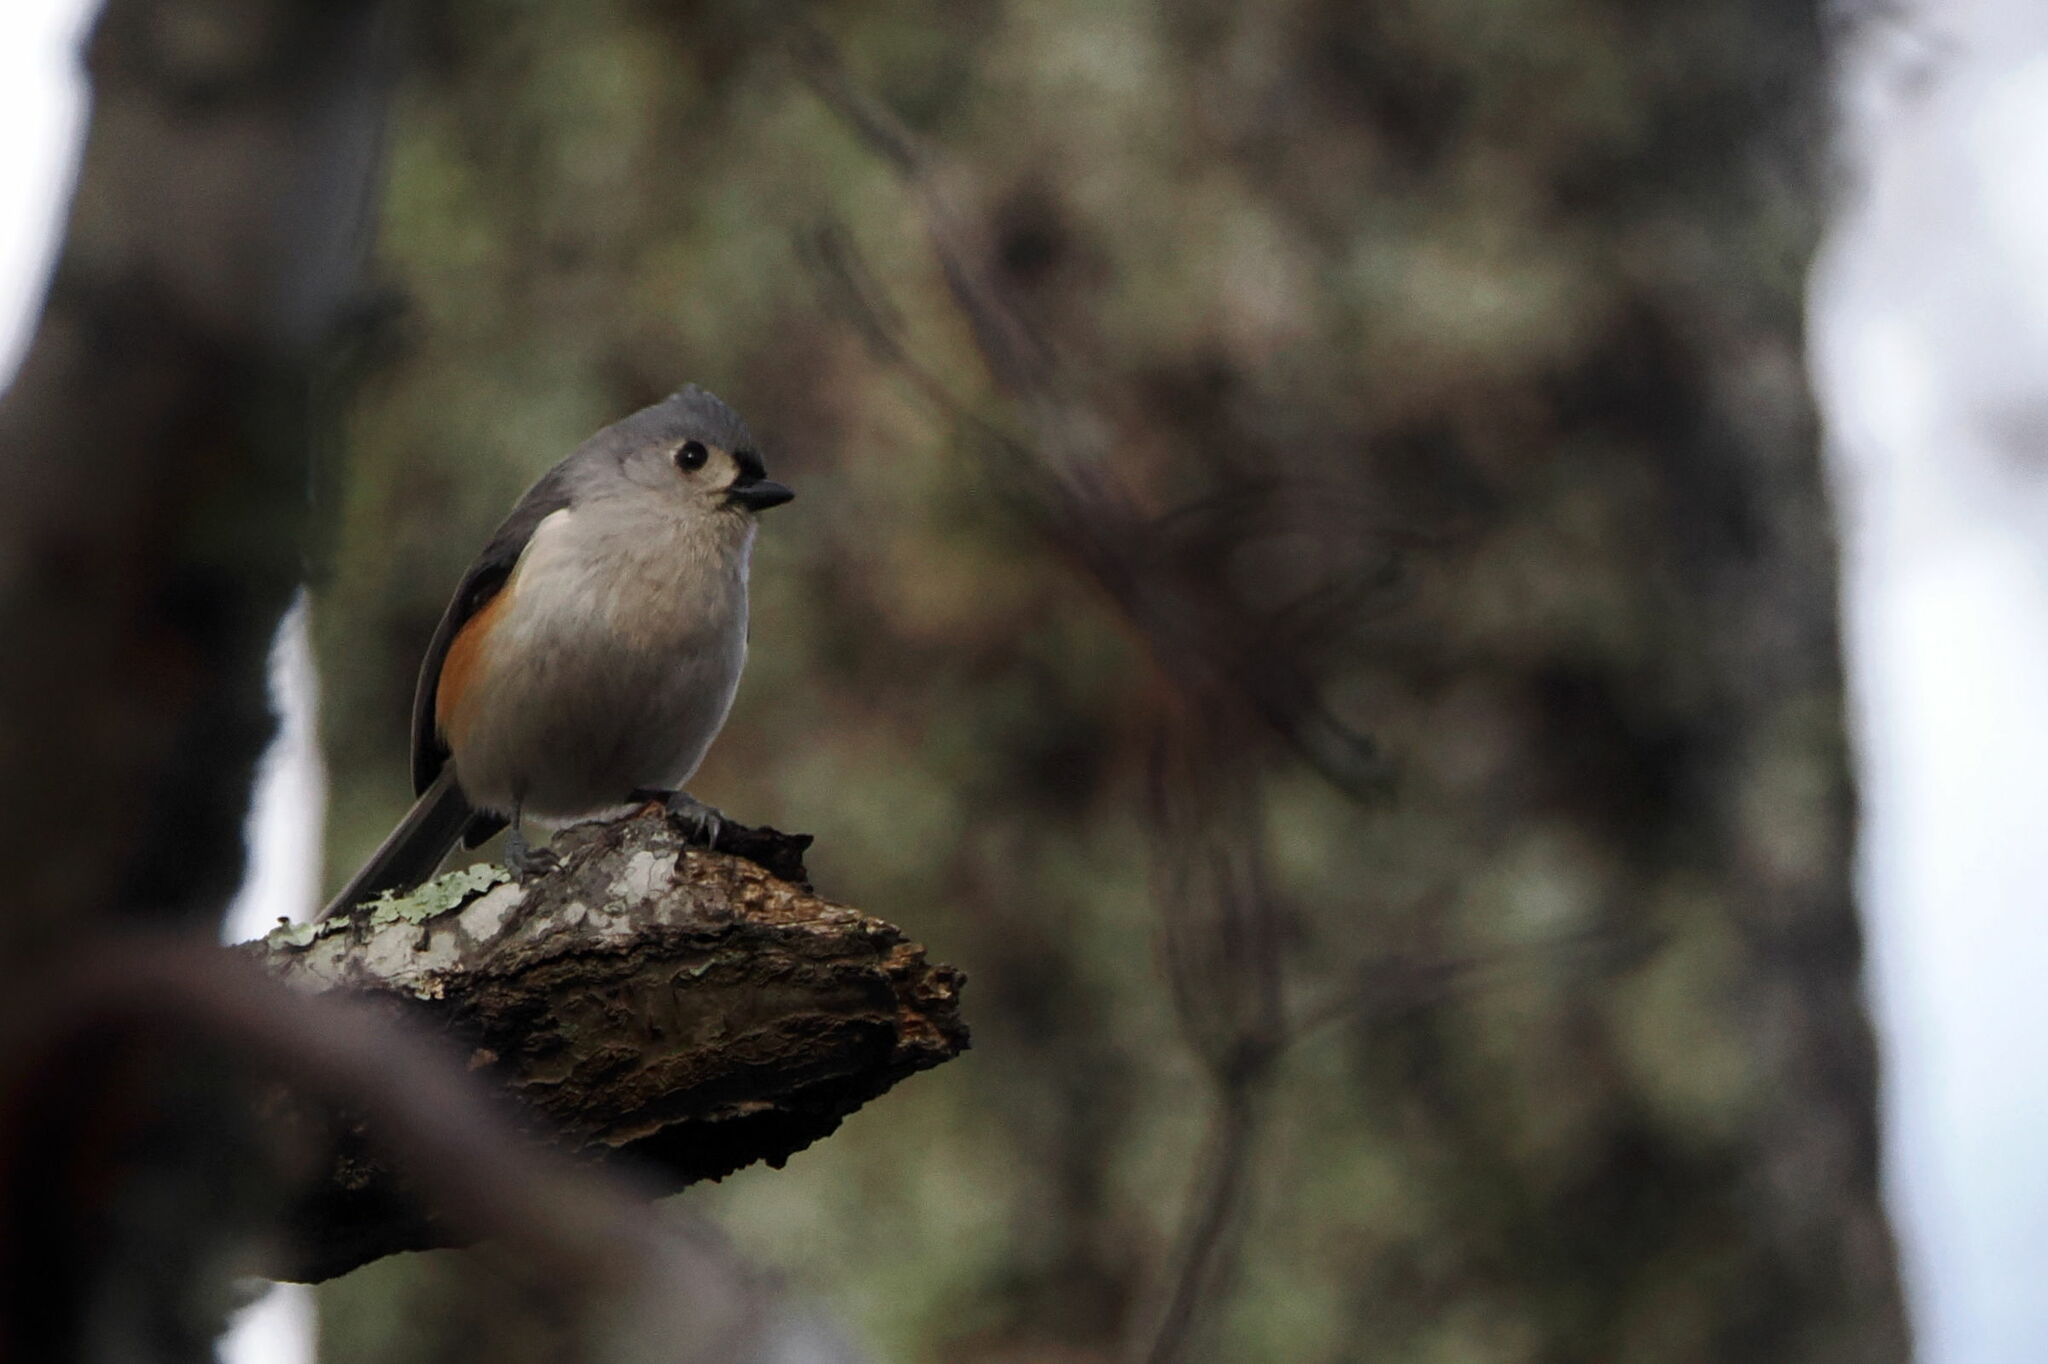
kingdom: Animalia
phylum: Chordata
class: Aves
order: Passeriformes
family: Paridae
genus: Baeolophus
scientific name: Baeolophus bicolor
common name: Tufted titmouse
